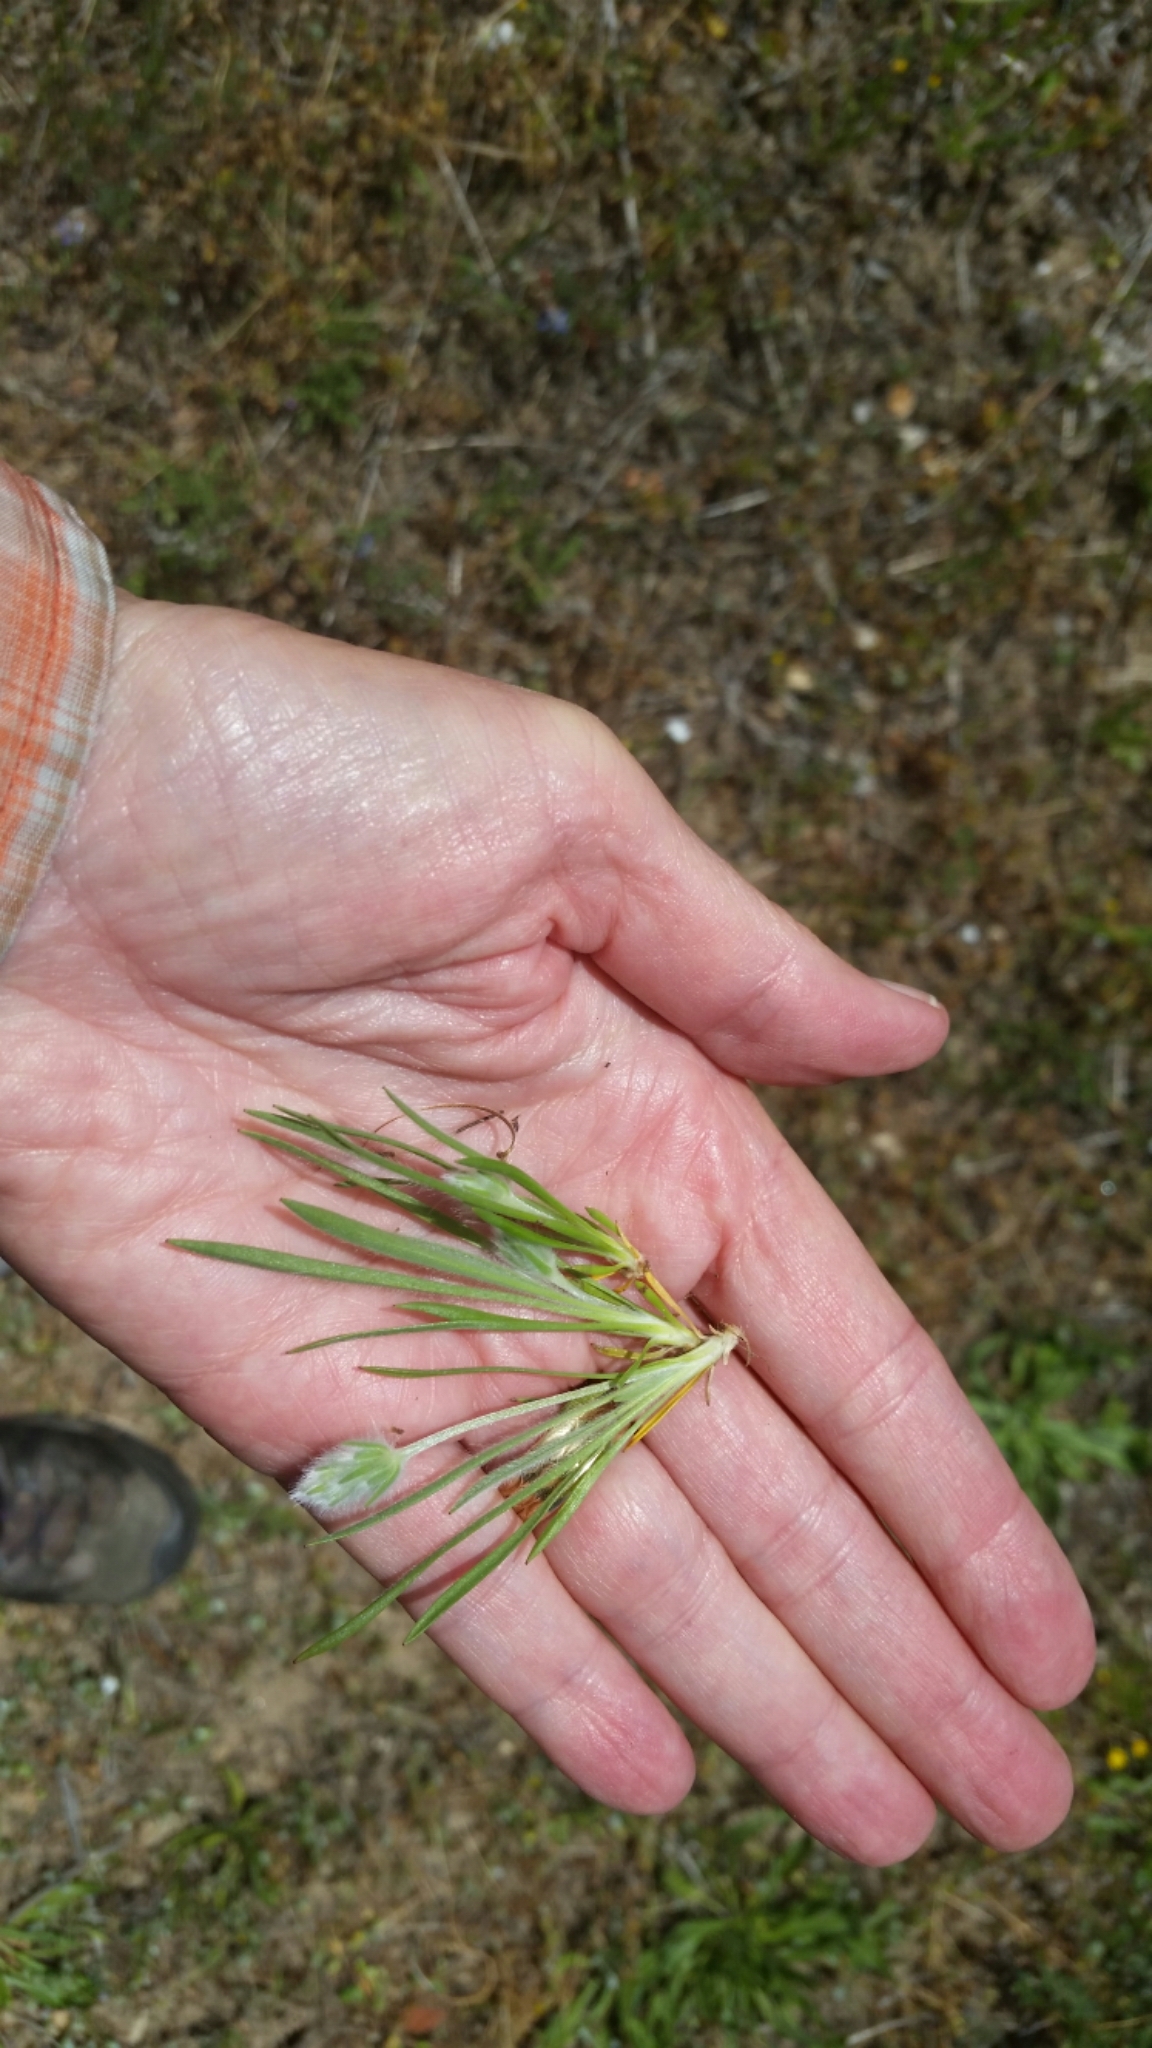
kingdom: Plantae
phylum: Tracheophyta
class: Magnoliopsida
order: Lamiales
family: Plantaginaceae
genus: Plantago
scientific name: Plantago patagonica
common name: Patagonia indian-wheat
